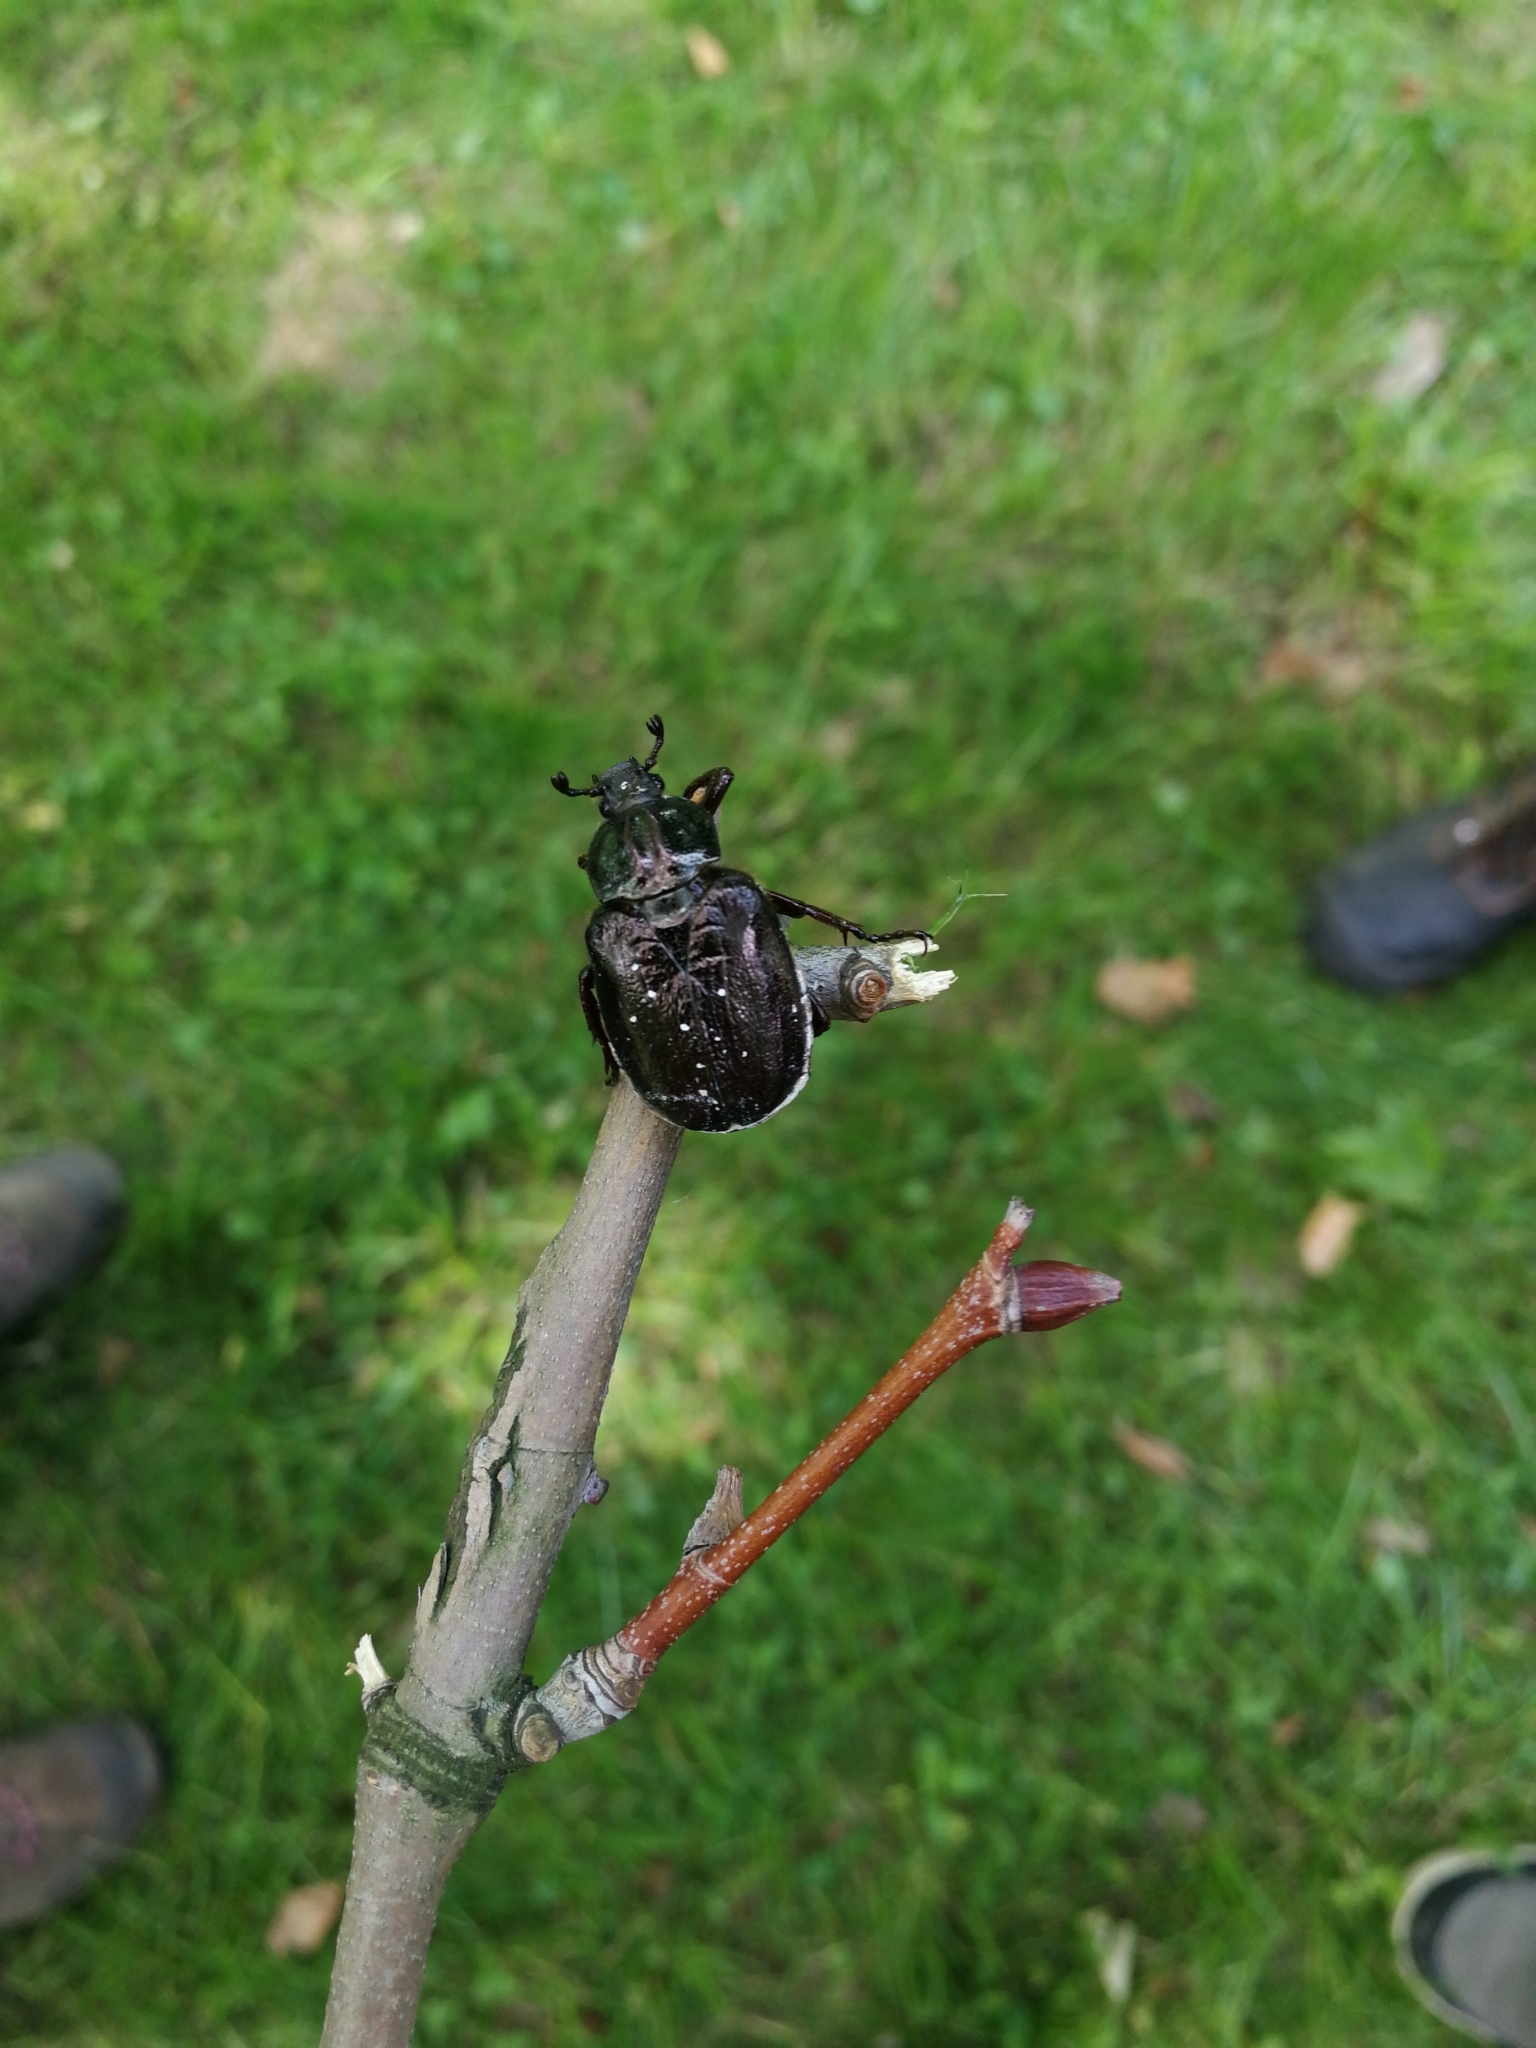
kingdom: Animalia
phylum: Arthropoda
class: Insecta
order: Coleoptera
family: Scarabaeidae
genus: Osmoderma
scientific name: Osmoderma barnabita
